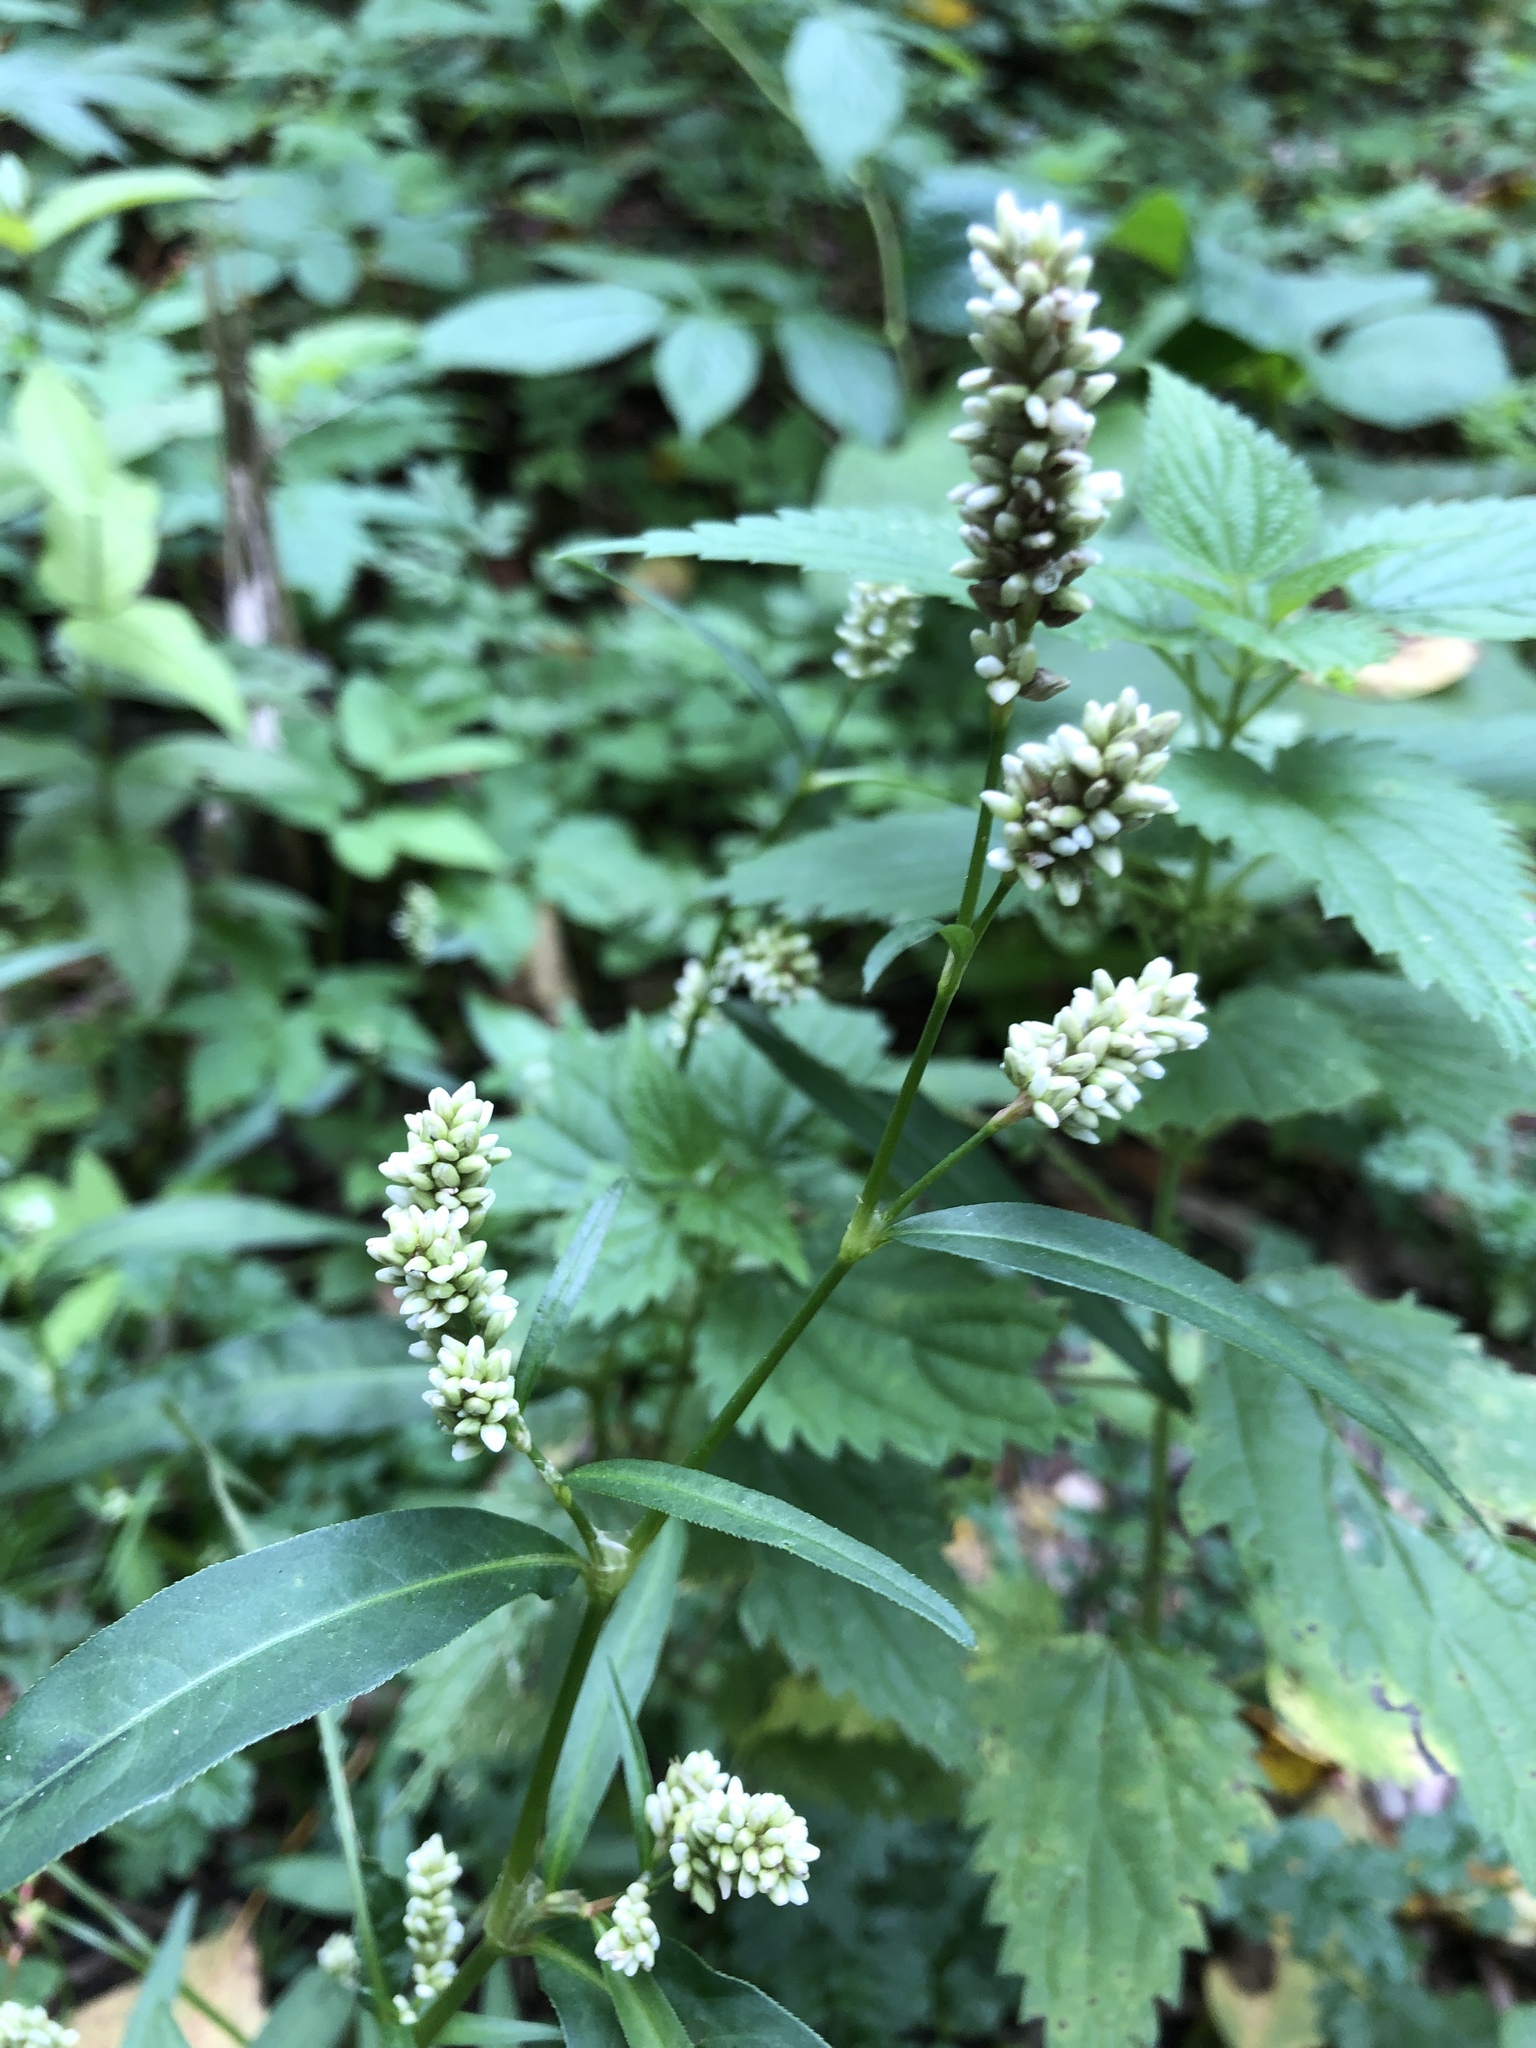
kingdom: Plantae
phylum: Tracheophyta
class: Magnoliopsida
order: Caryophyllales
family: Polygonaceae
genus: Persicaria
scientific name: Persicaria lapathifolia
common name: Curlytop knotweed
